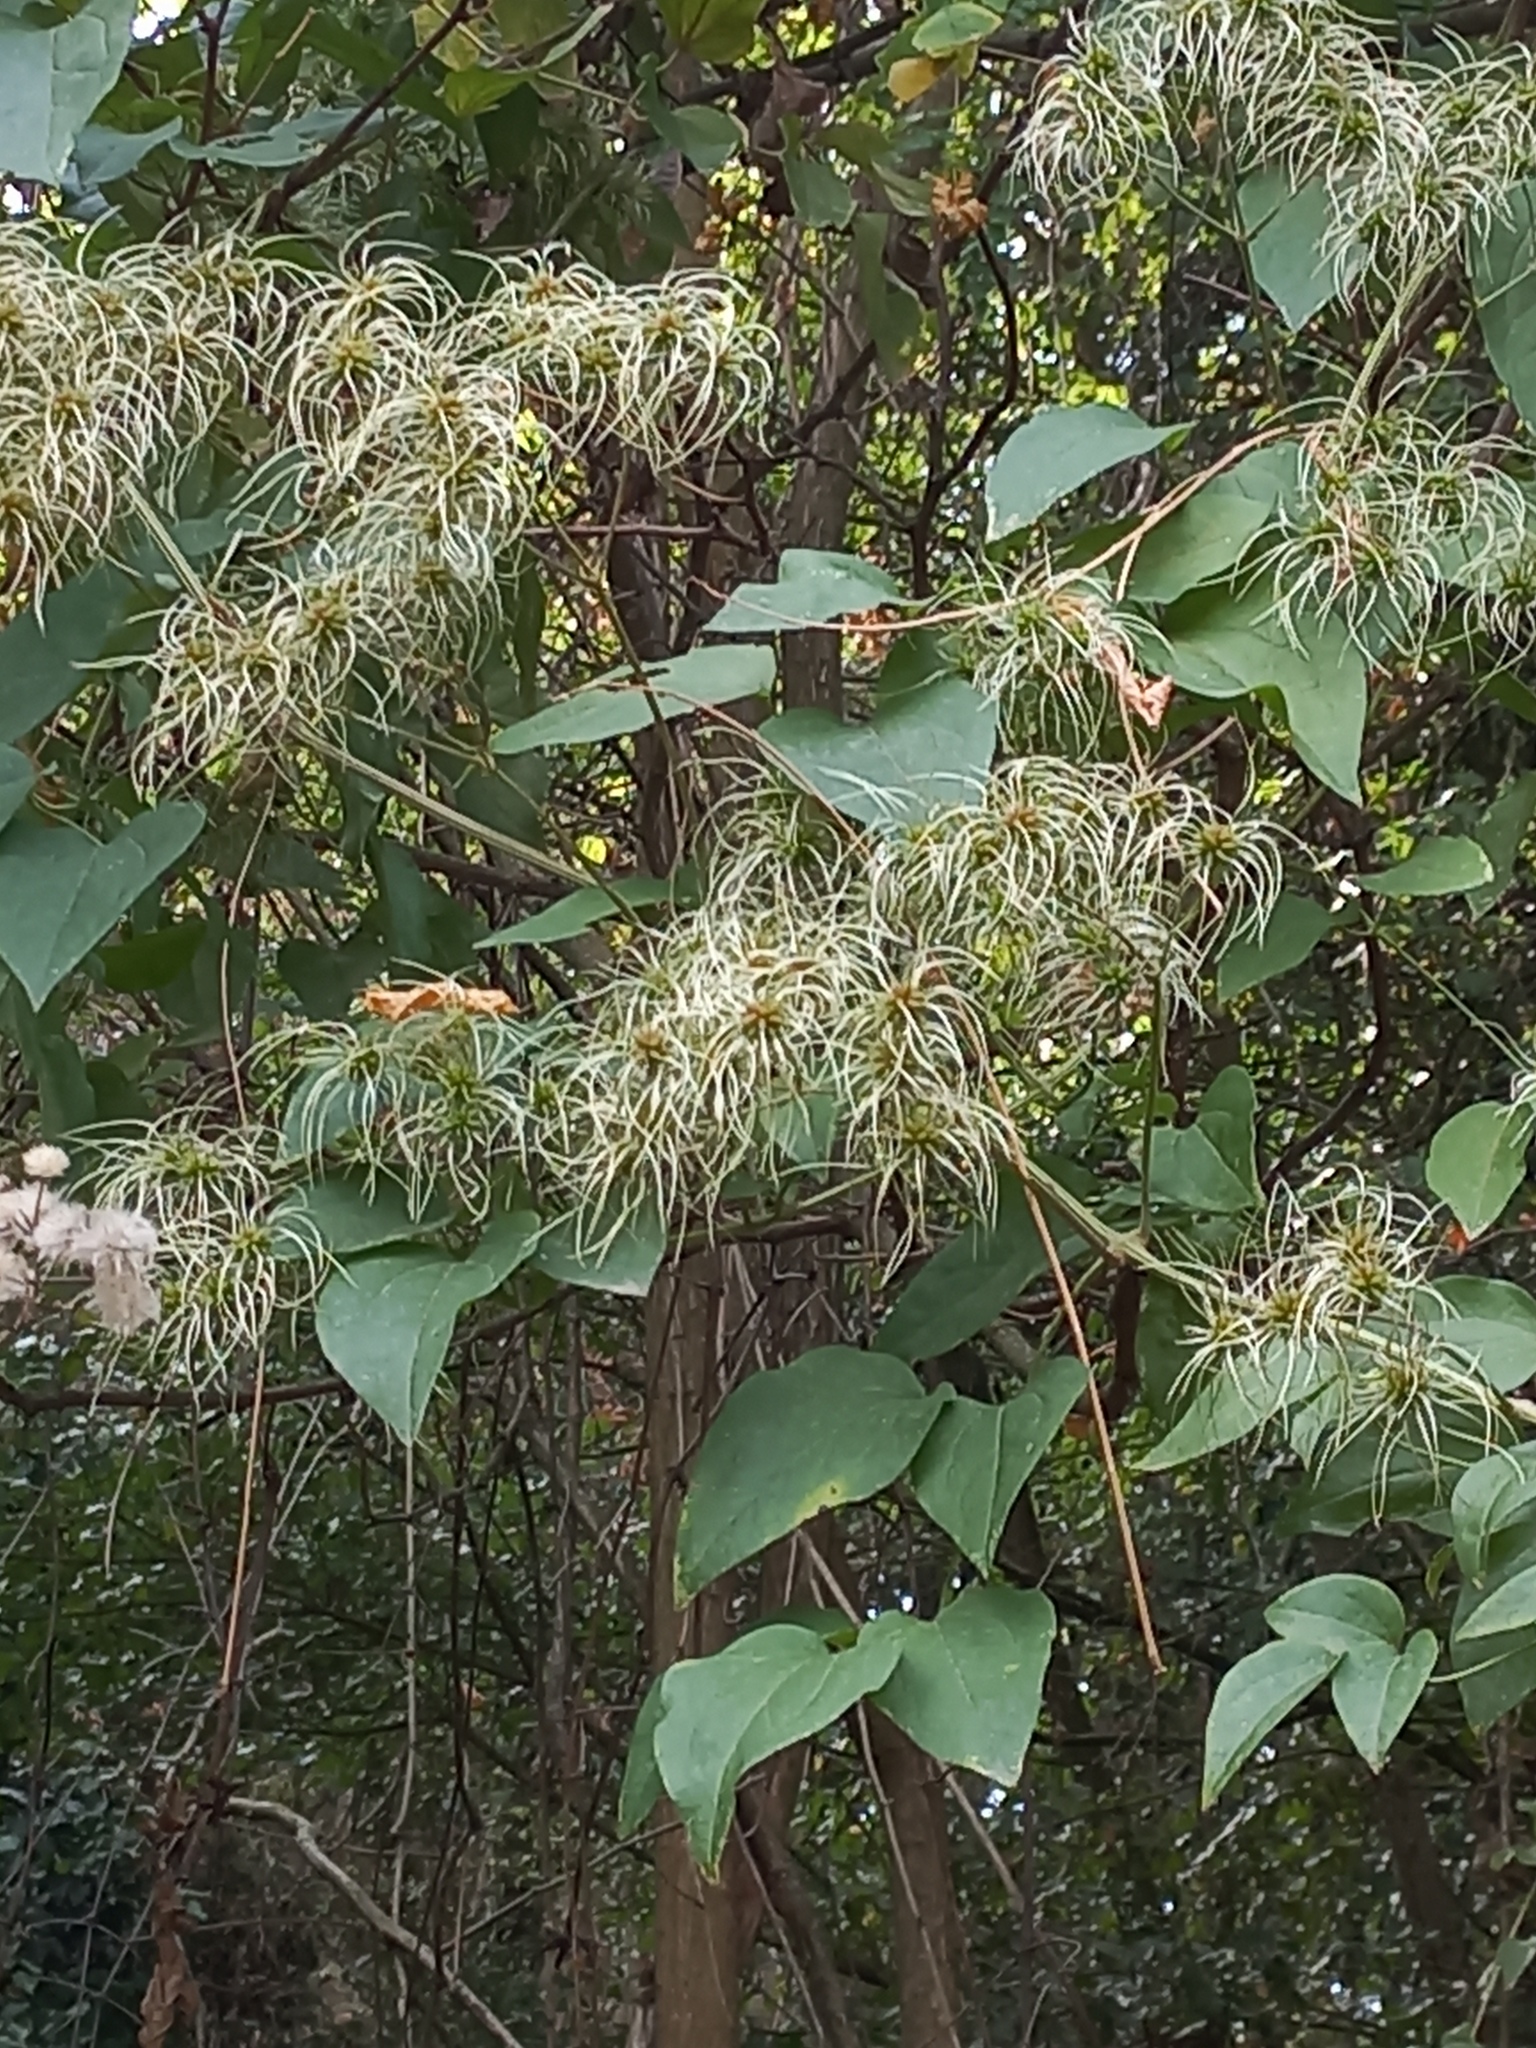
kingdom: Plantae
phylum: Tracheophyta
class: Magnoliopsida
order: Ranunculales
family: Ranunculaceae
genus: Clematis
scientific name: Clematis vitalba
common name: Evergreen clematis
